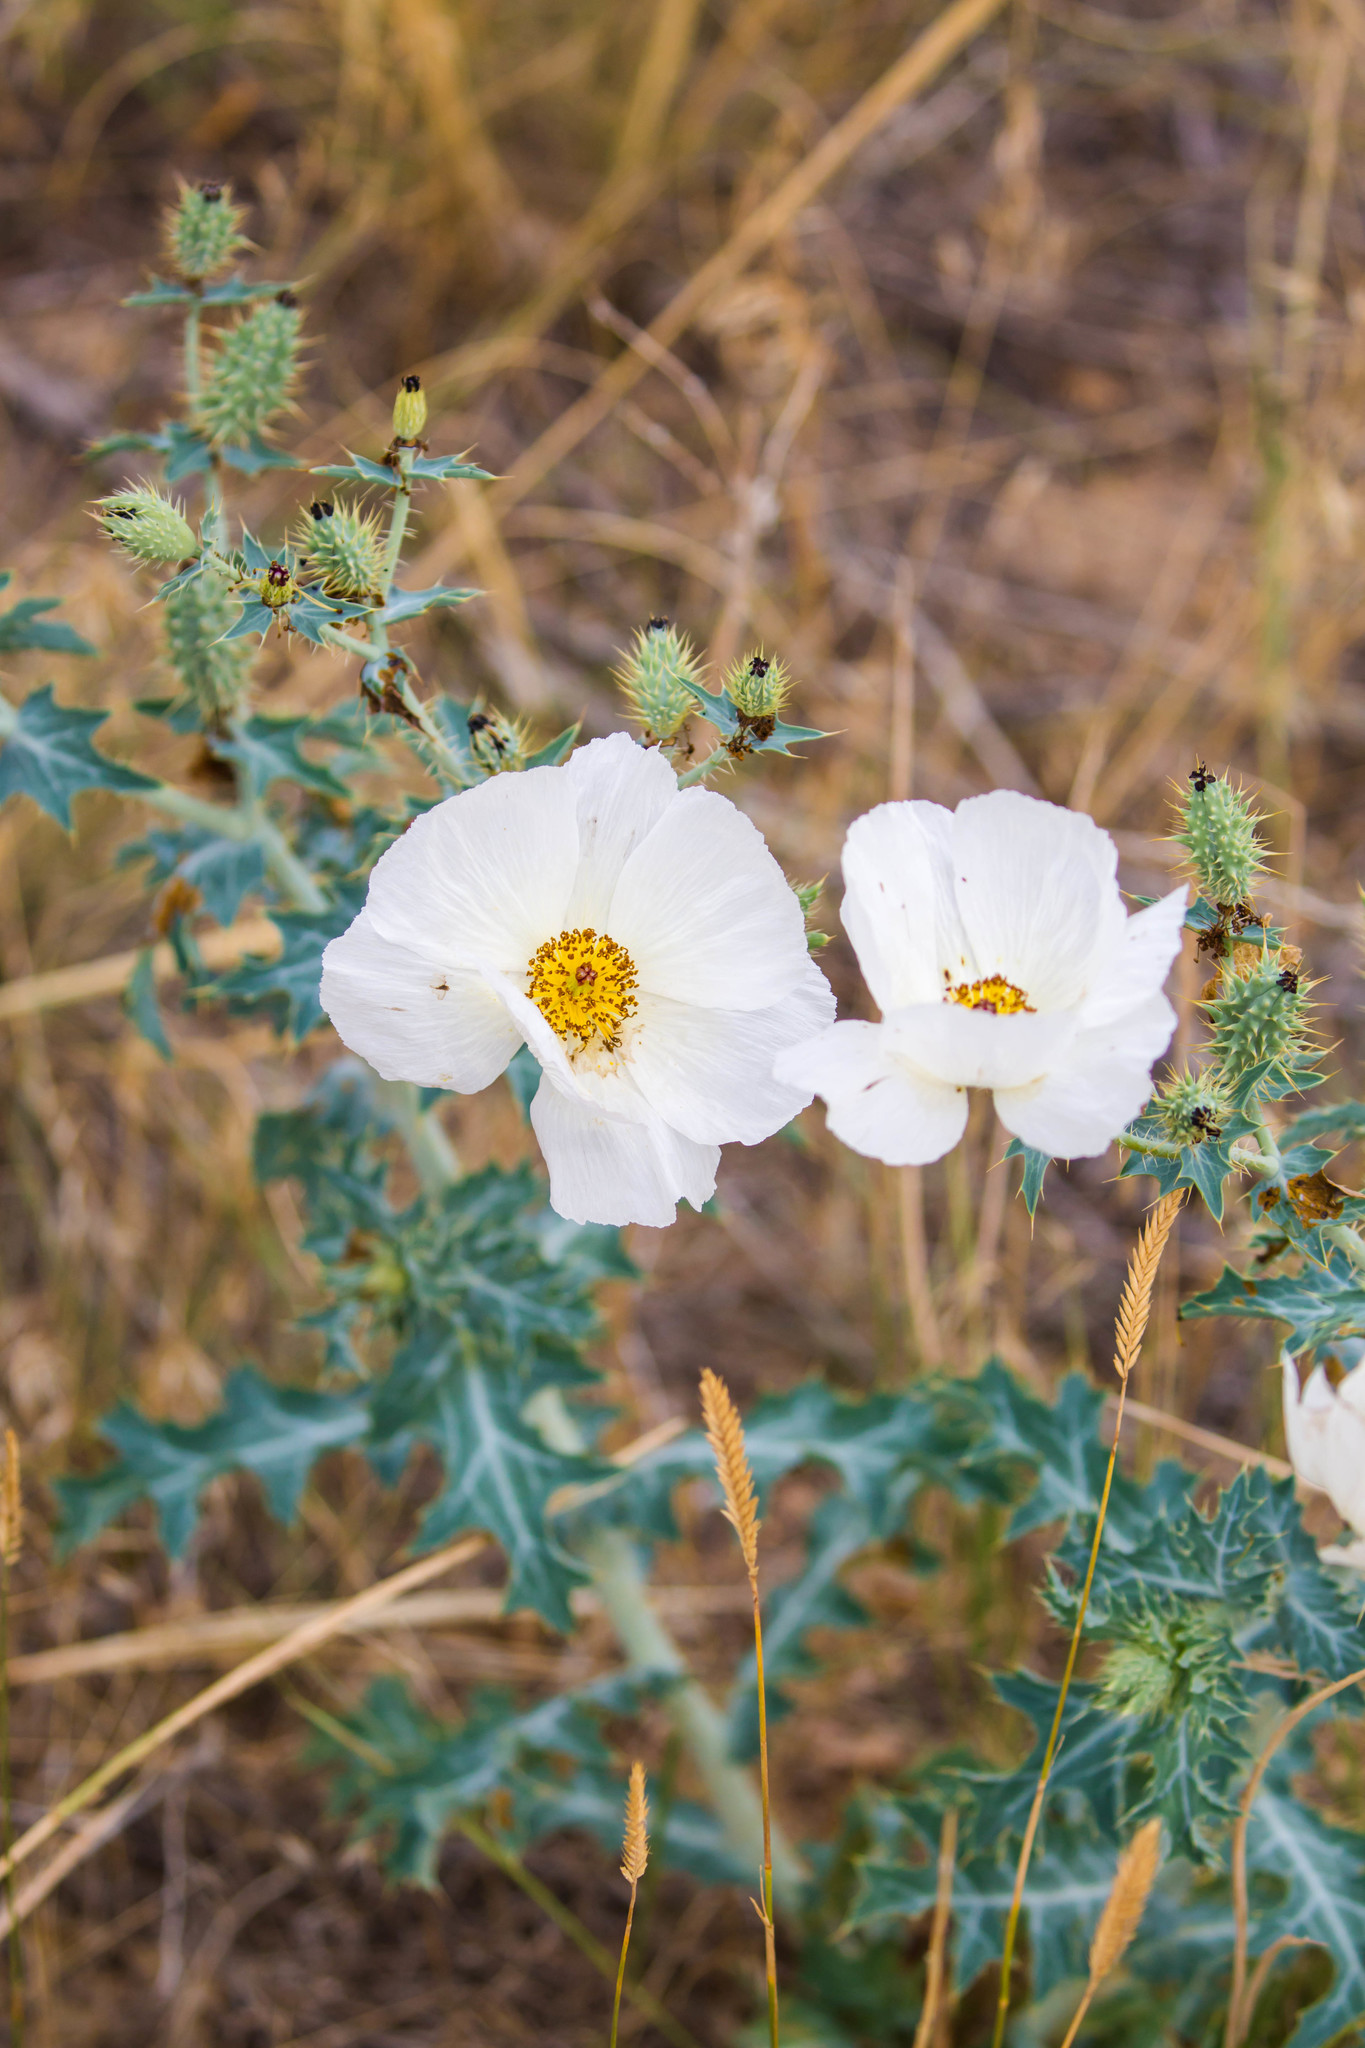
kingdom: Plantae
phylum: Tracheophyta
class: Magnoliopsida
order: Ranunculales
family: Papaveraceae
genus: Argemone
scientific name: Argemone polyanthemos
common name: Plains prickly-poppy
